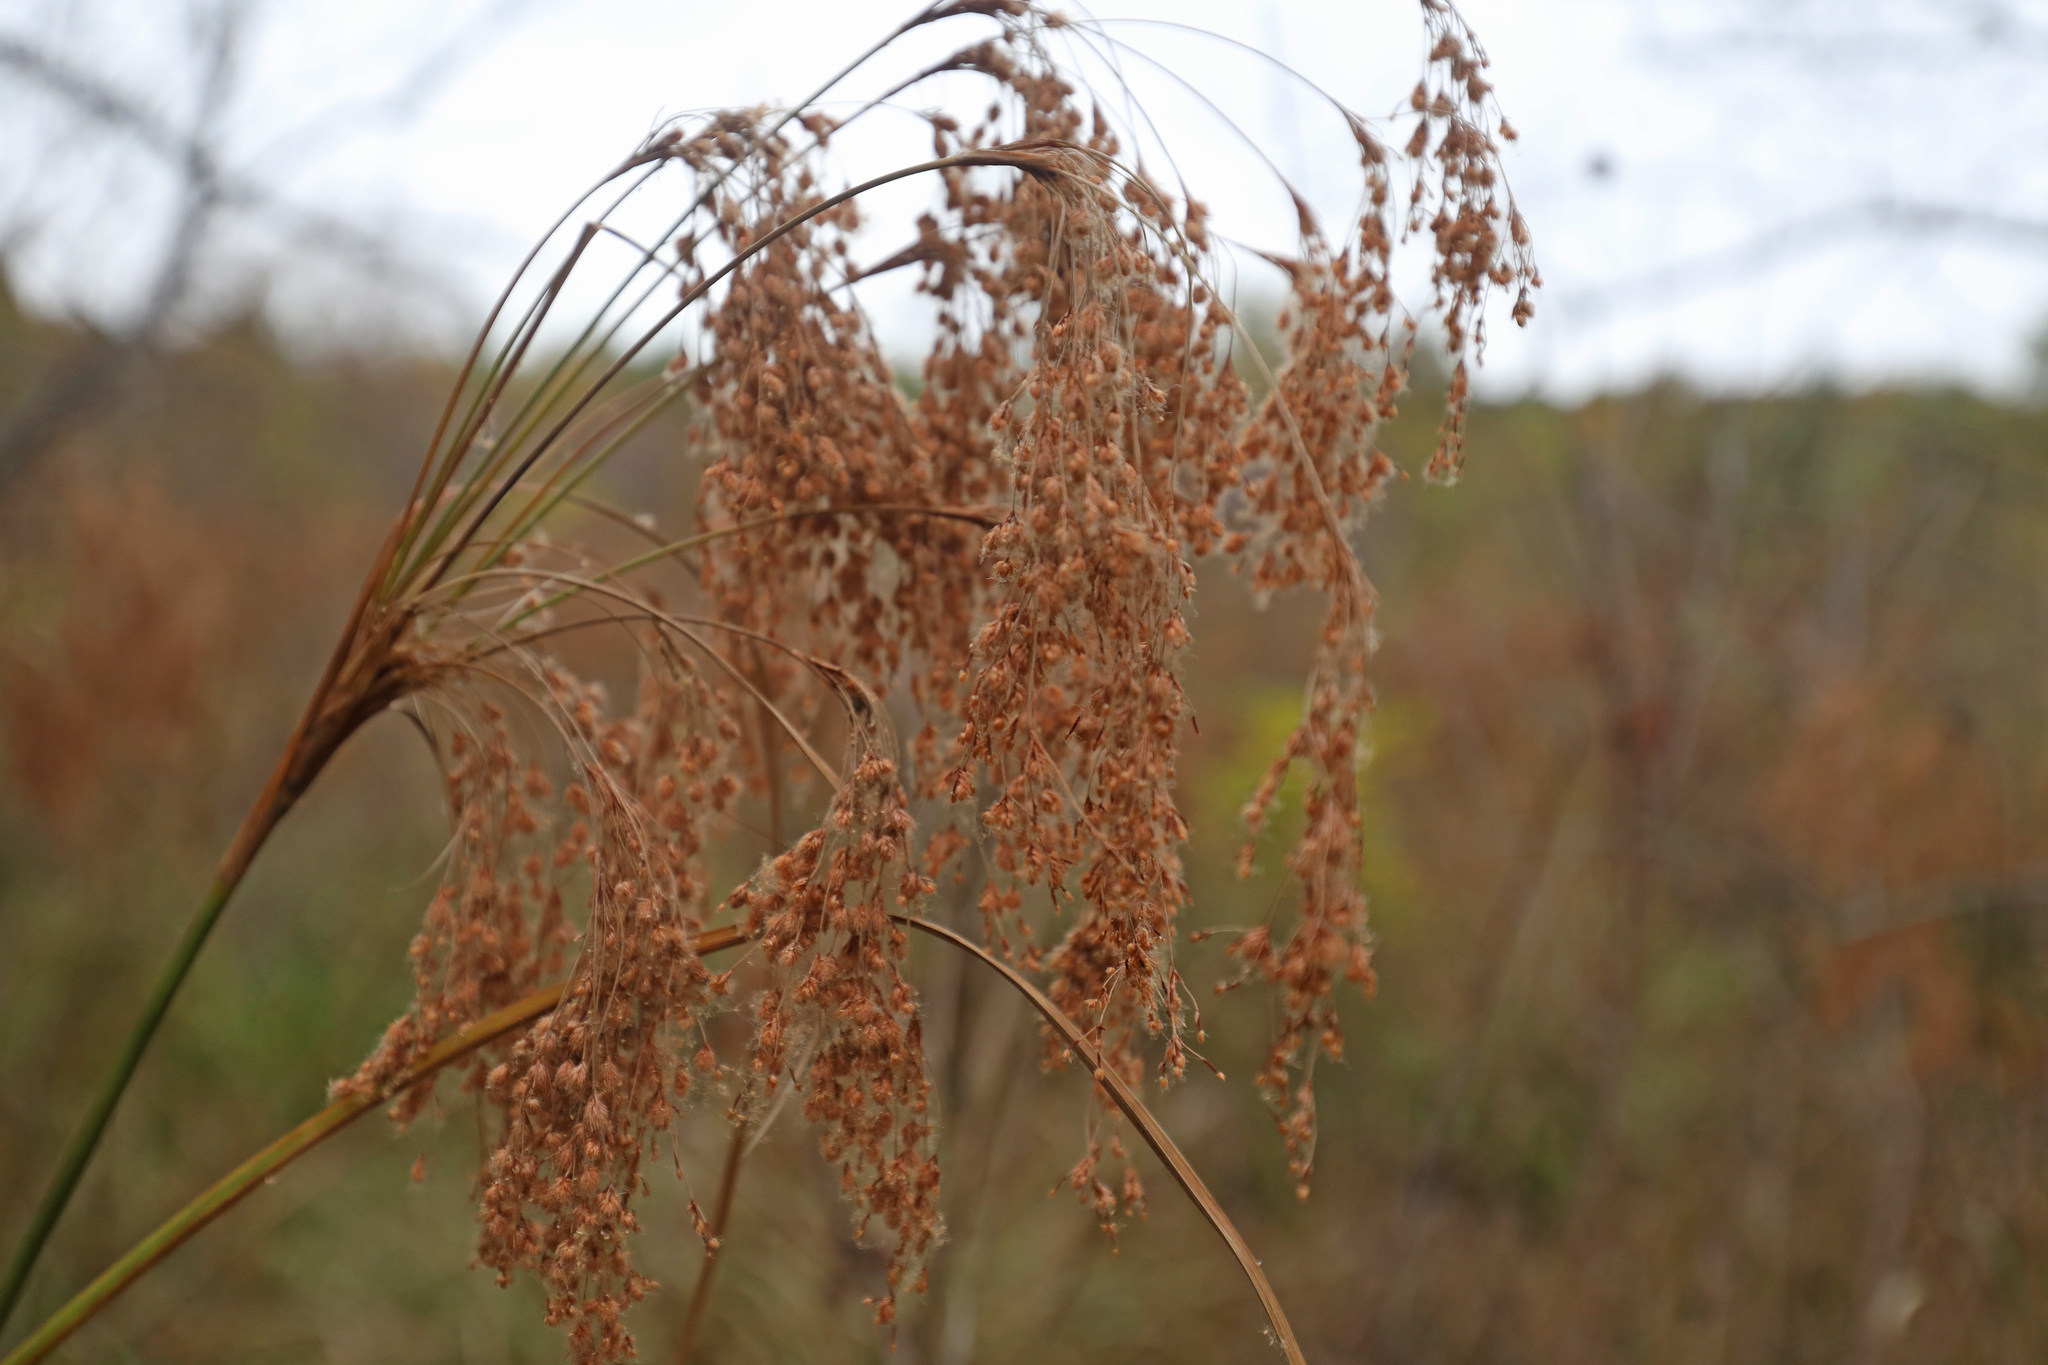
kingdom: Plantae
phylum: Tracheophyta
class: Liliopsida
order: Poales
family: Cyperaceae
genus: Scirpus
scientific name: Scirpus cyperinus
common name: Black-sheathed bulrush
